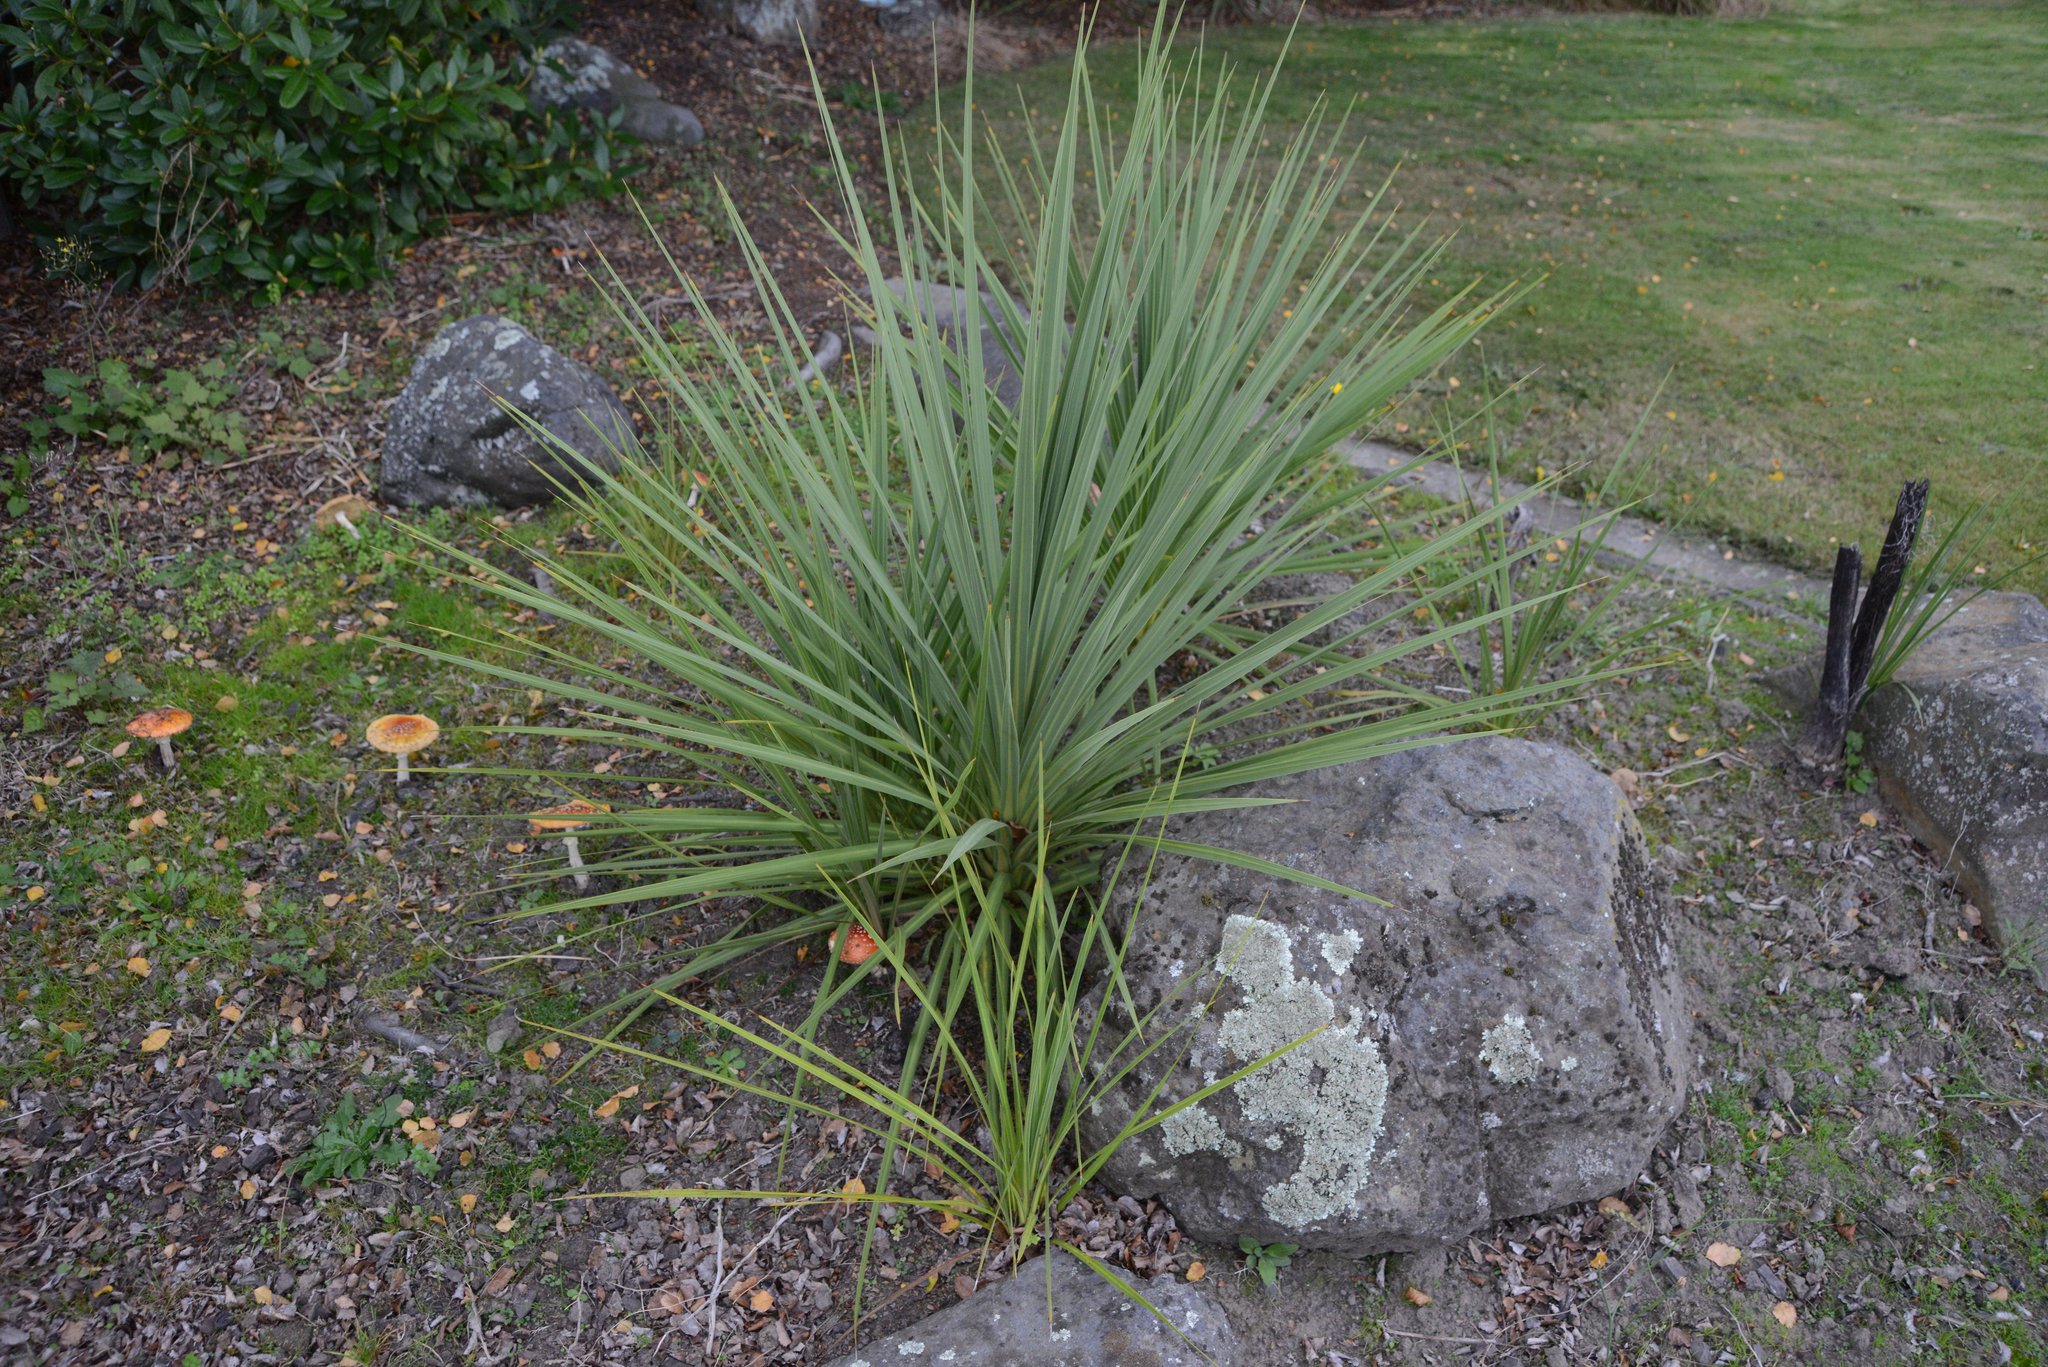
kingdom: Plantae
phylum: Tracheophyta
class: Liliopsida
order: Asparagales
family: Asparagaceae
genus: Cordyline
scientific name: Cordyline australis
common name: Cabbage-palm
